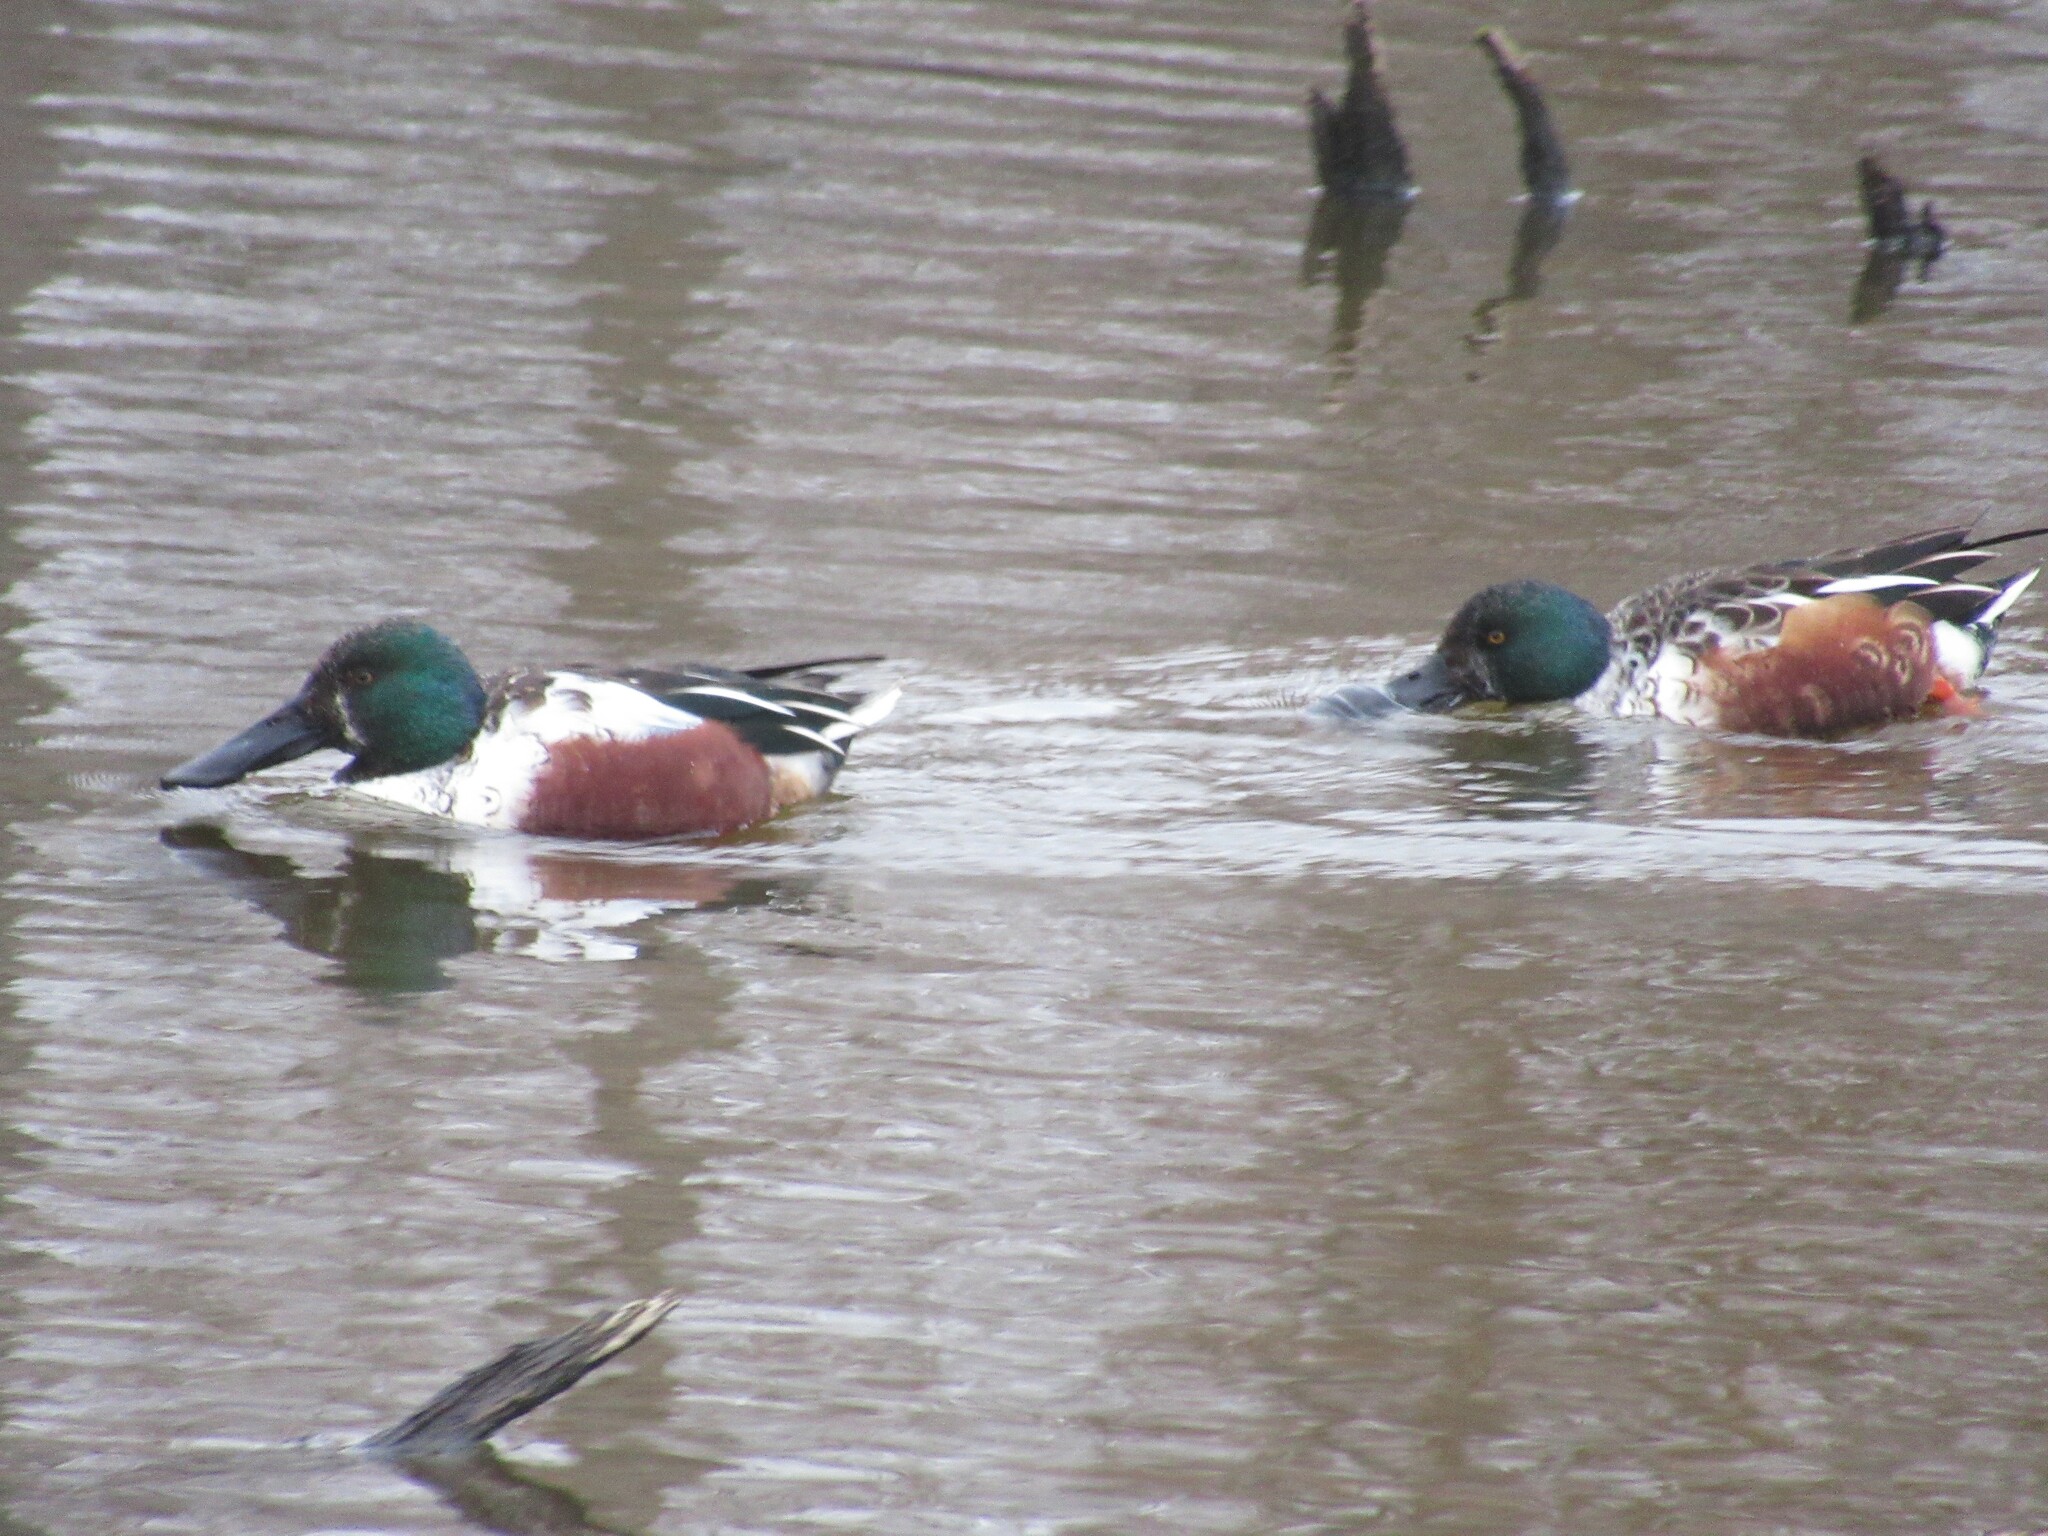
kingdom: Animalia
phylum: Chordata
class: Aves
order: Anseriformes
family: Anatidae
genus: Spatula
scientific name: Spatula clypeata
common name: Northern shoveler
